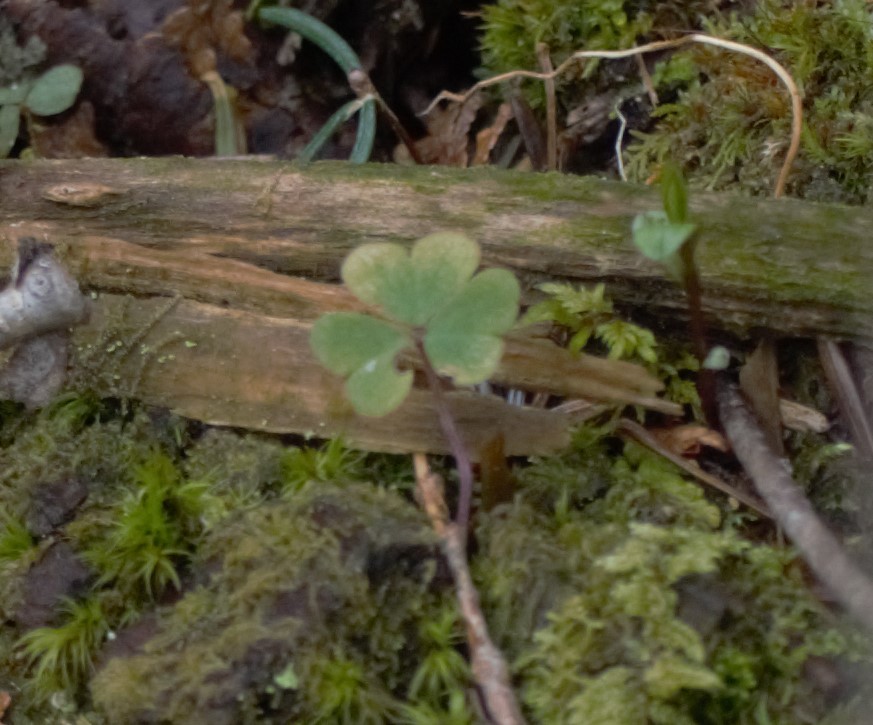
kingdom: Plantae
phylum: Tracheophyta
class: Magnoliopsida
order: Oxalidales
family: Oxalidaceae
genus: Oxalis
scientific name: Oxalis montana
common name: American wood-sorrel
